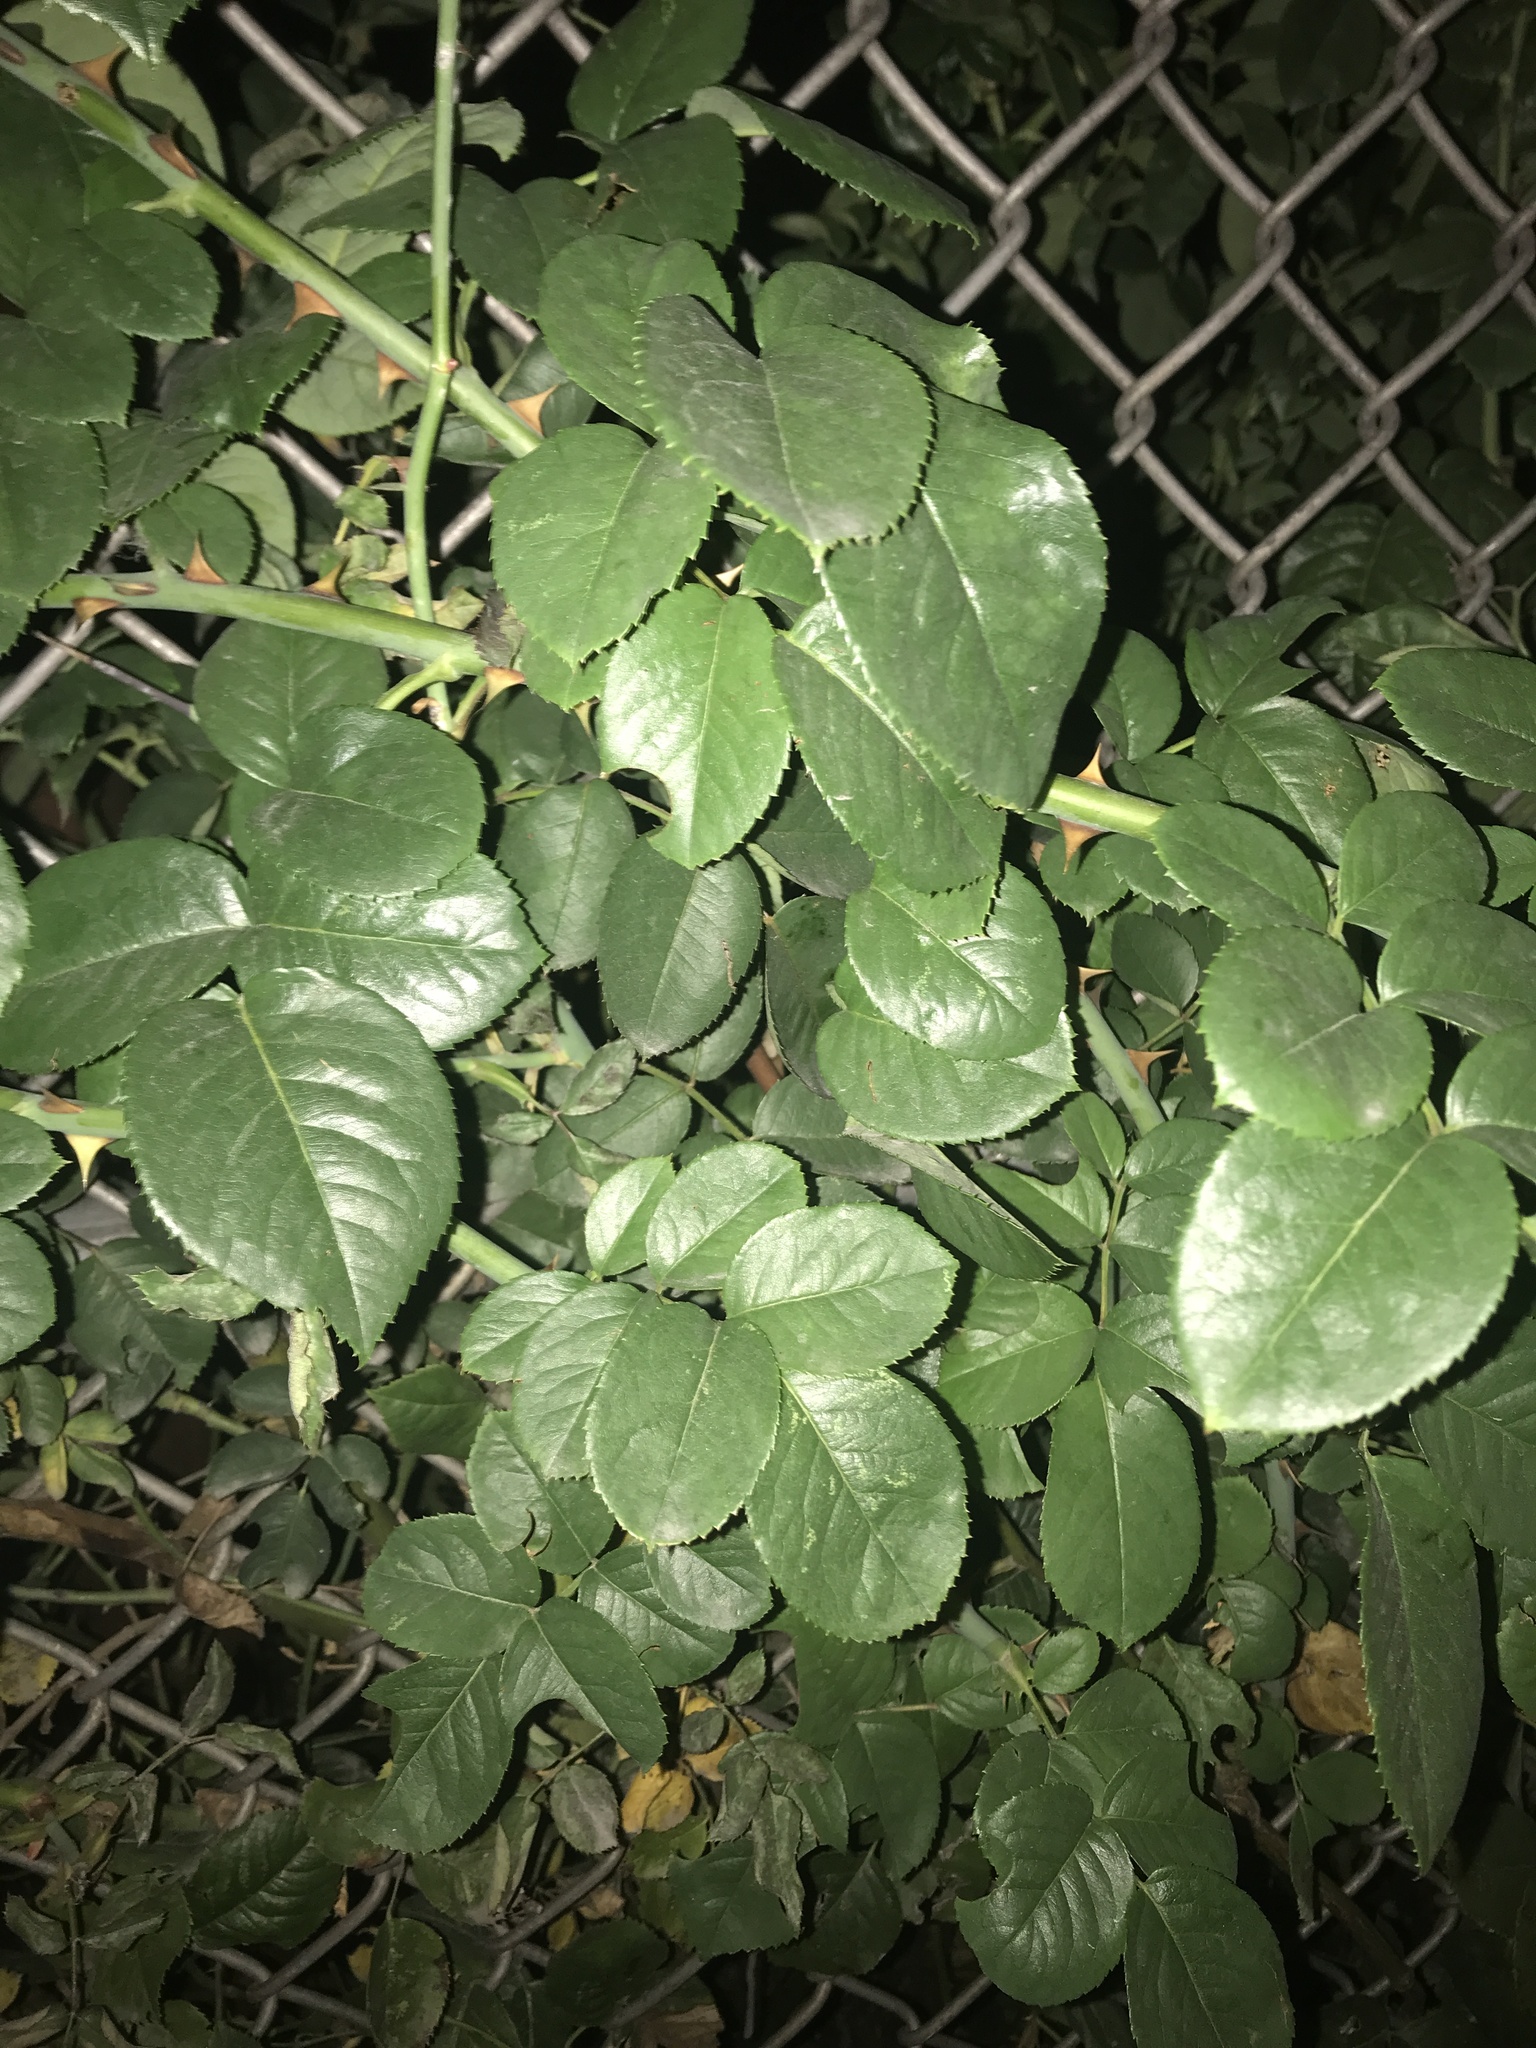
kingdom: Plantae
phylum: Tracheophyta
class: Magnoliopsida
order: Rosales
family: Rosaceae
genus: Rosa
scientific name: Rosa
